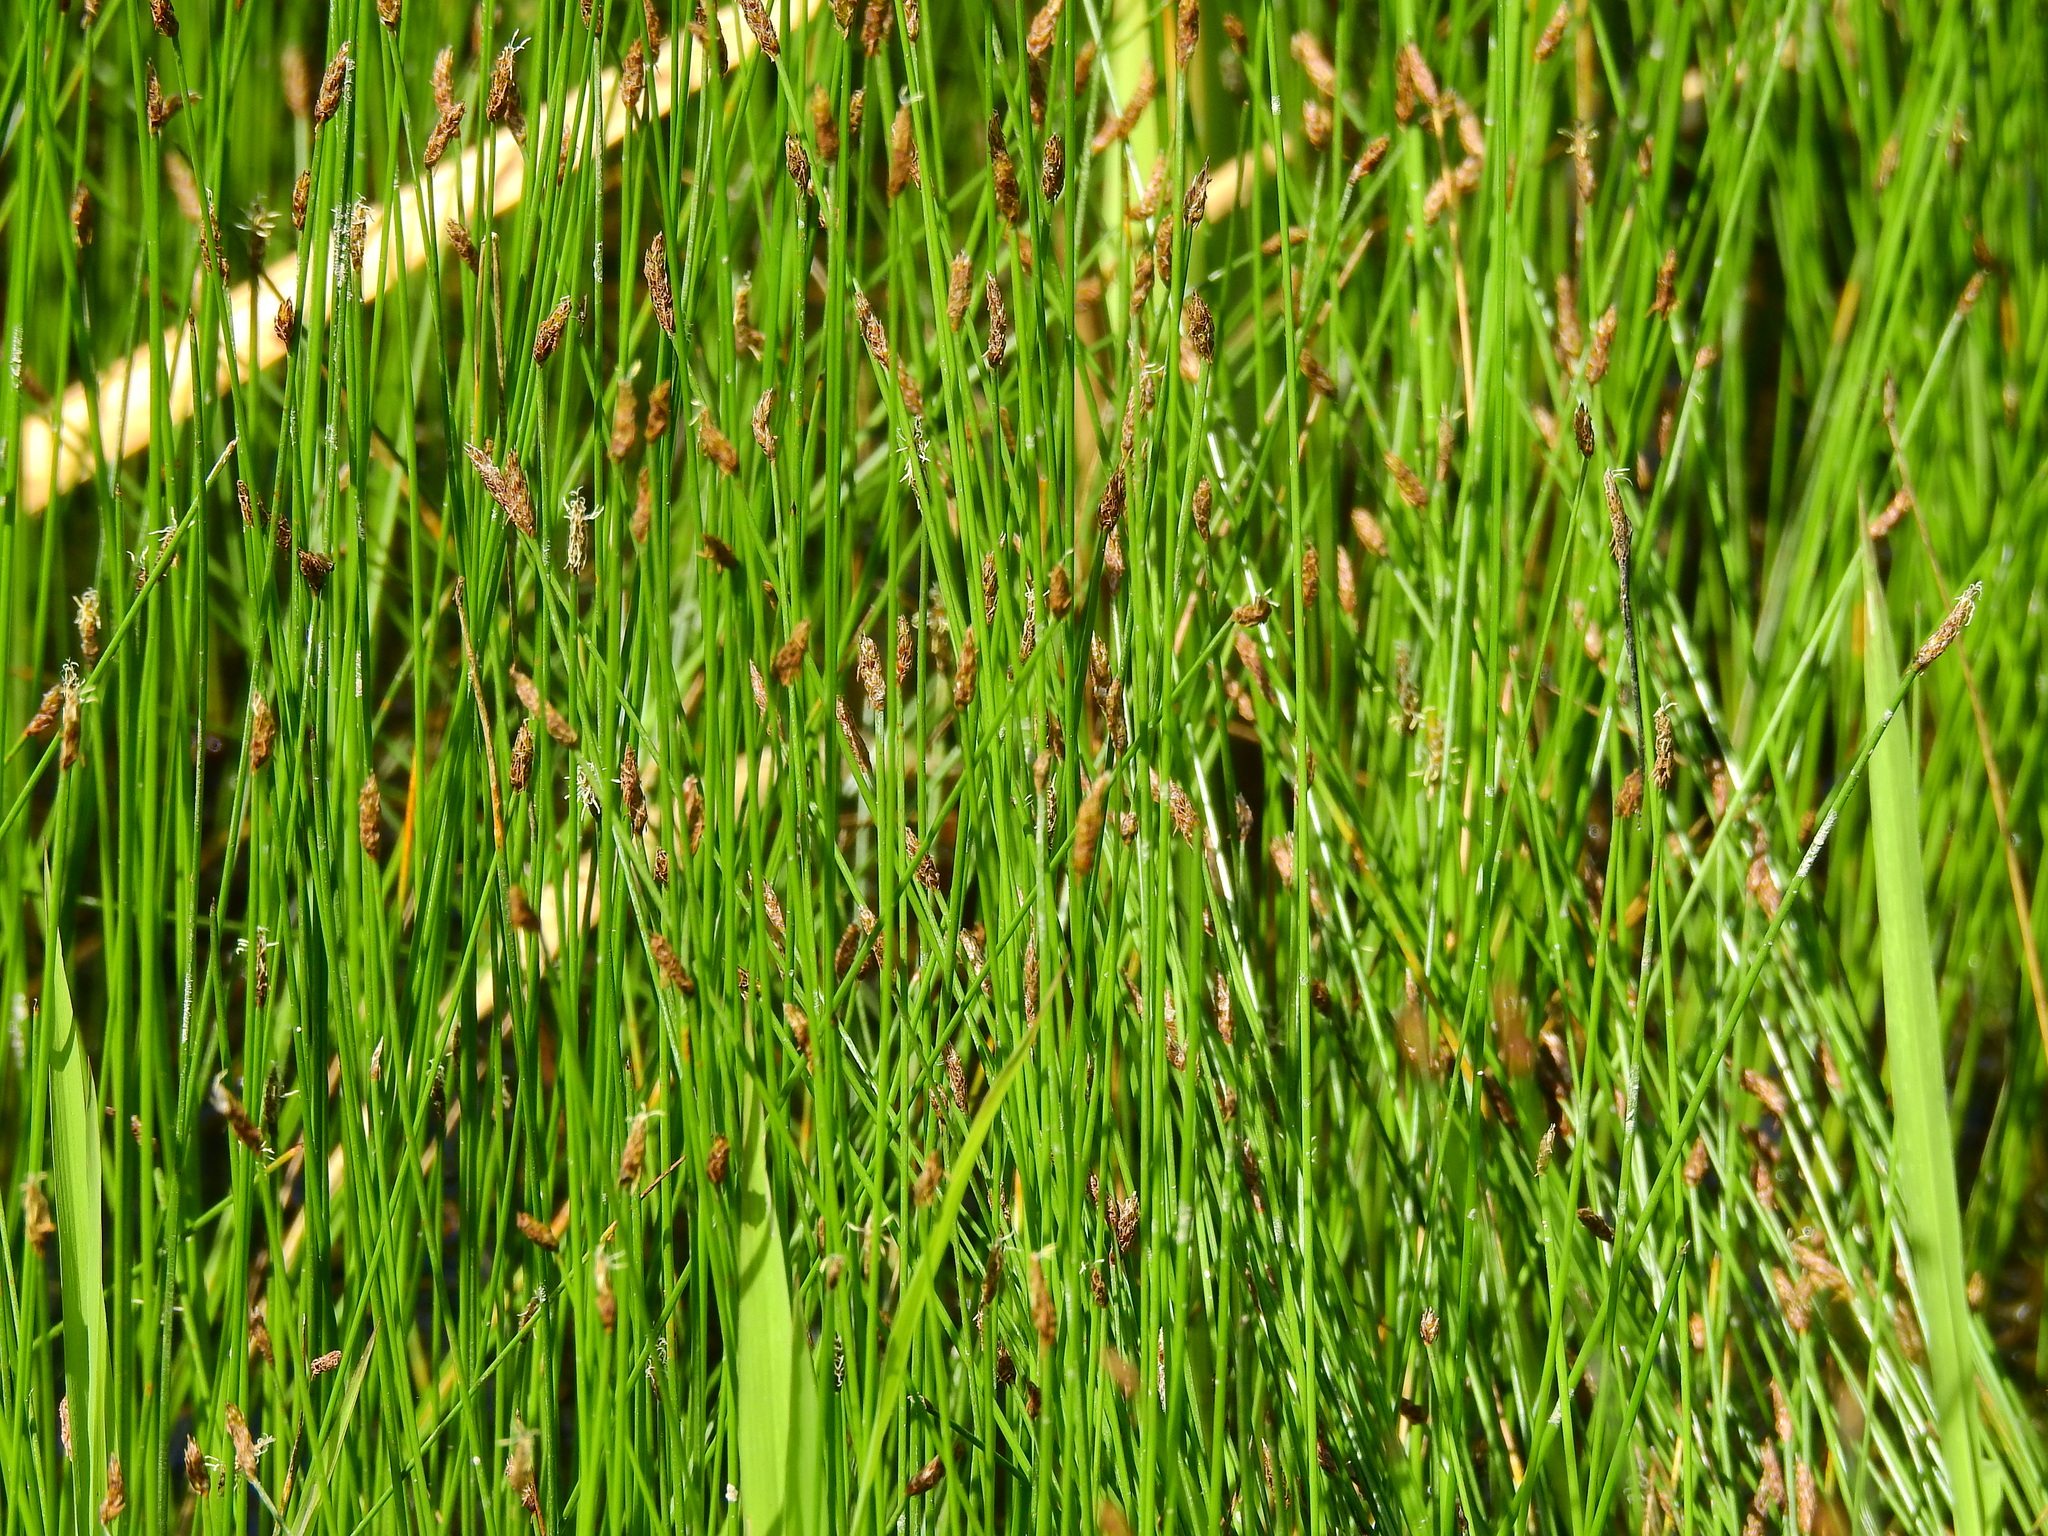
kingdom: Plantae
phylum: Tracheophyta
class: Liliopsida
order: Poales
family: Cyperaceae
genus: Eleocharis
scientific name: Eleocharis obtusa
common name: Blunt spikerush
